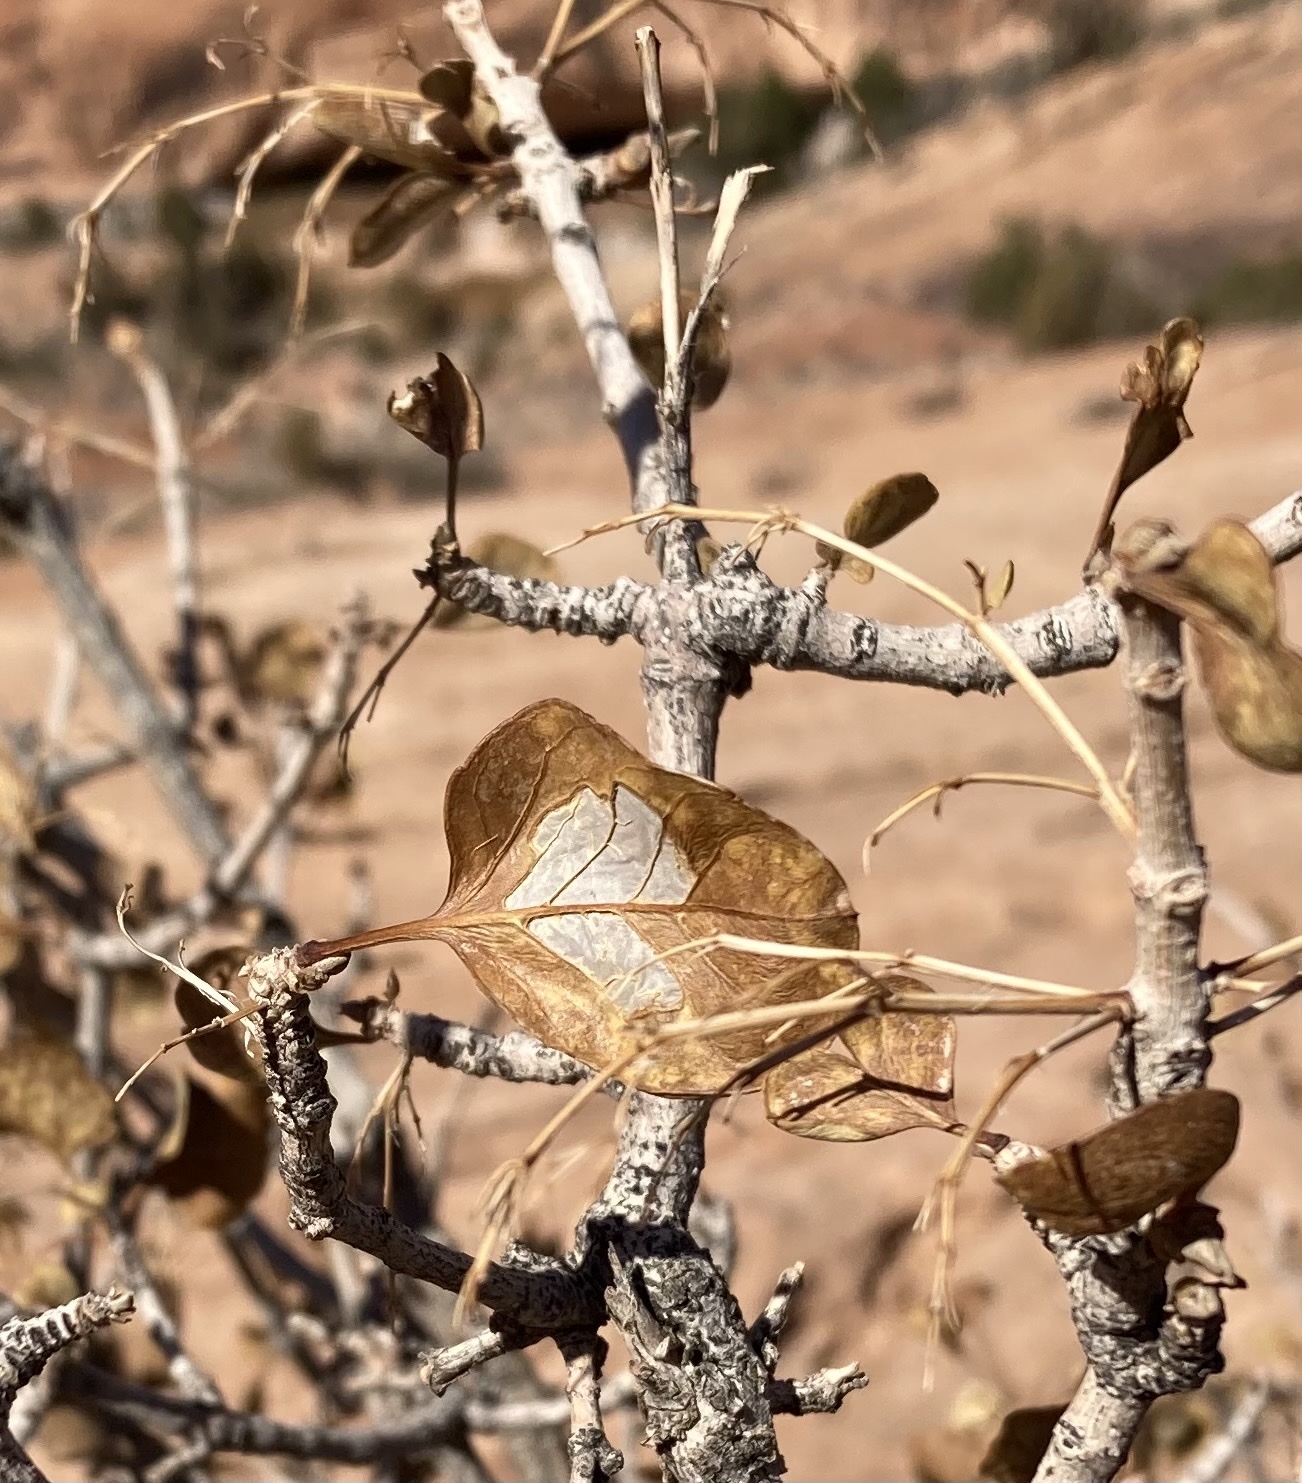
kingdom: Plantae
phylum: Tracheophyta
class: Magnoliopsida
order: Lamiales
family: Oleaceae
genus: Fraxinus
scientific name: Fraxinus anomala
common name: Utah ash
